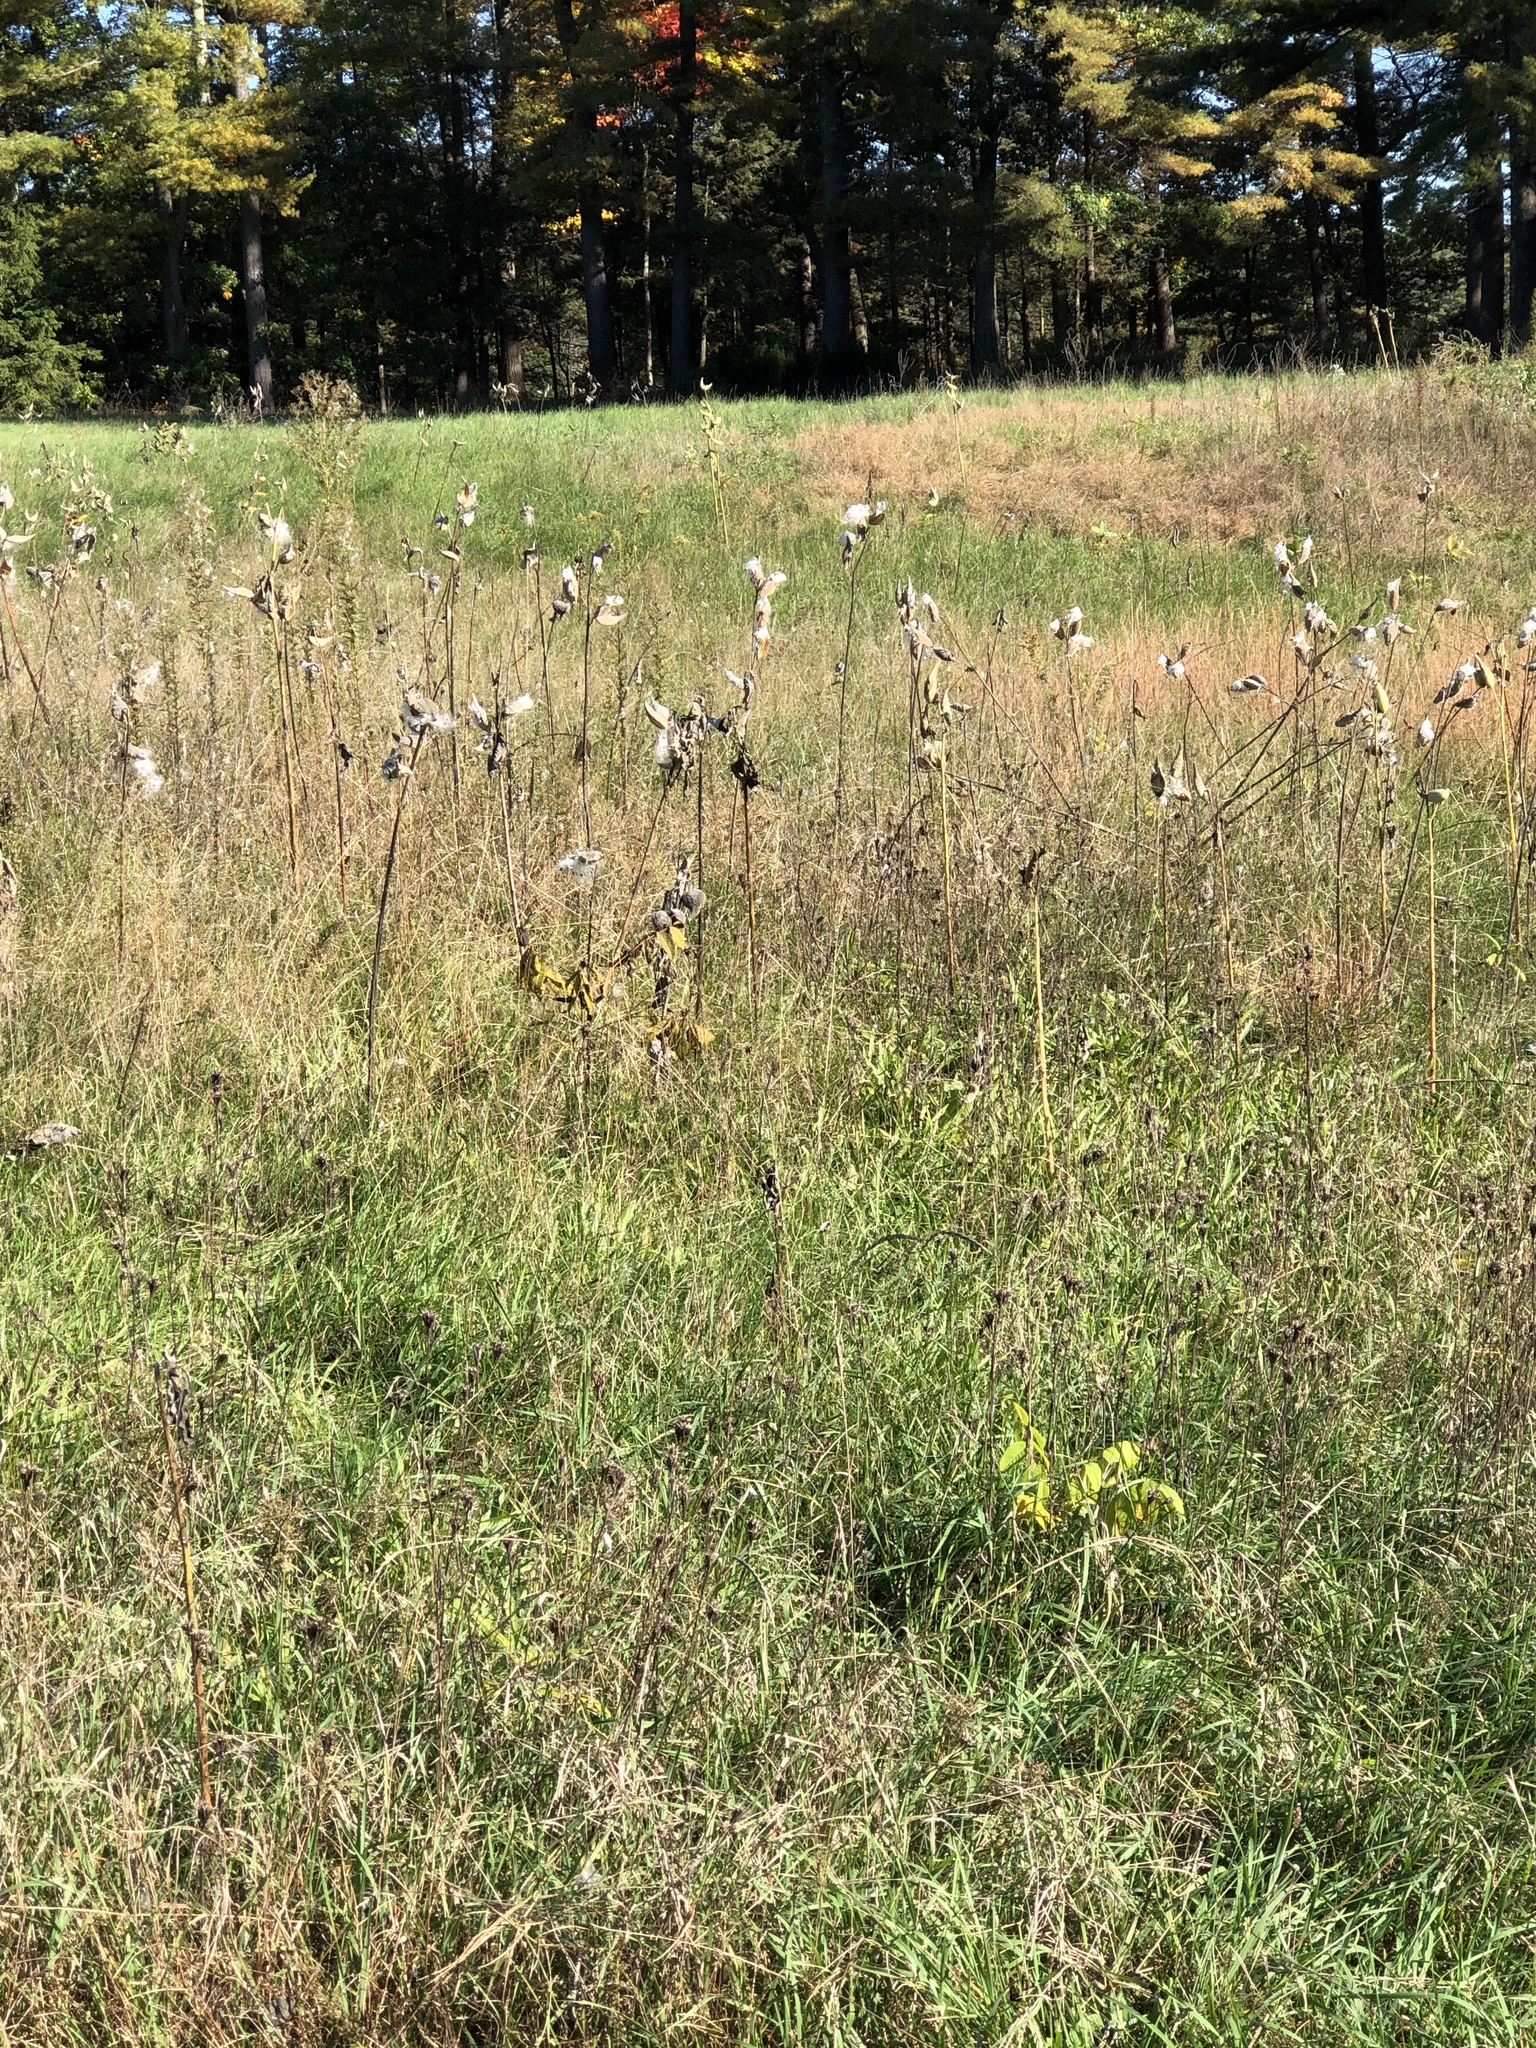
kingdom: Plantae
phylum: Tracheophyta
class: Magnoliopsida
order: Gentianales
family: Apocynaceae
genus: Asclepias
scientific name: Asclepias syriaca
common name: Common milkweed
